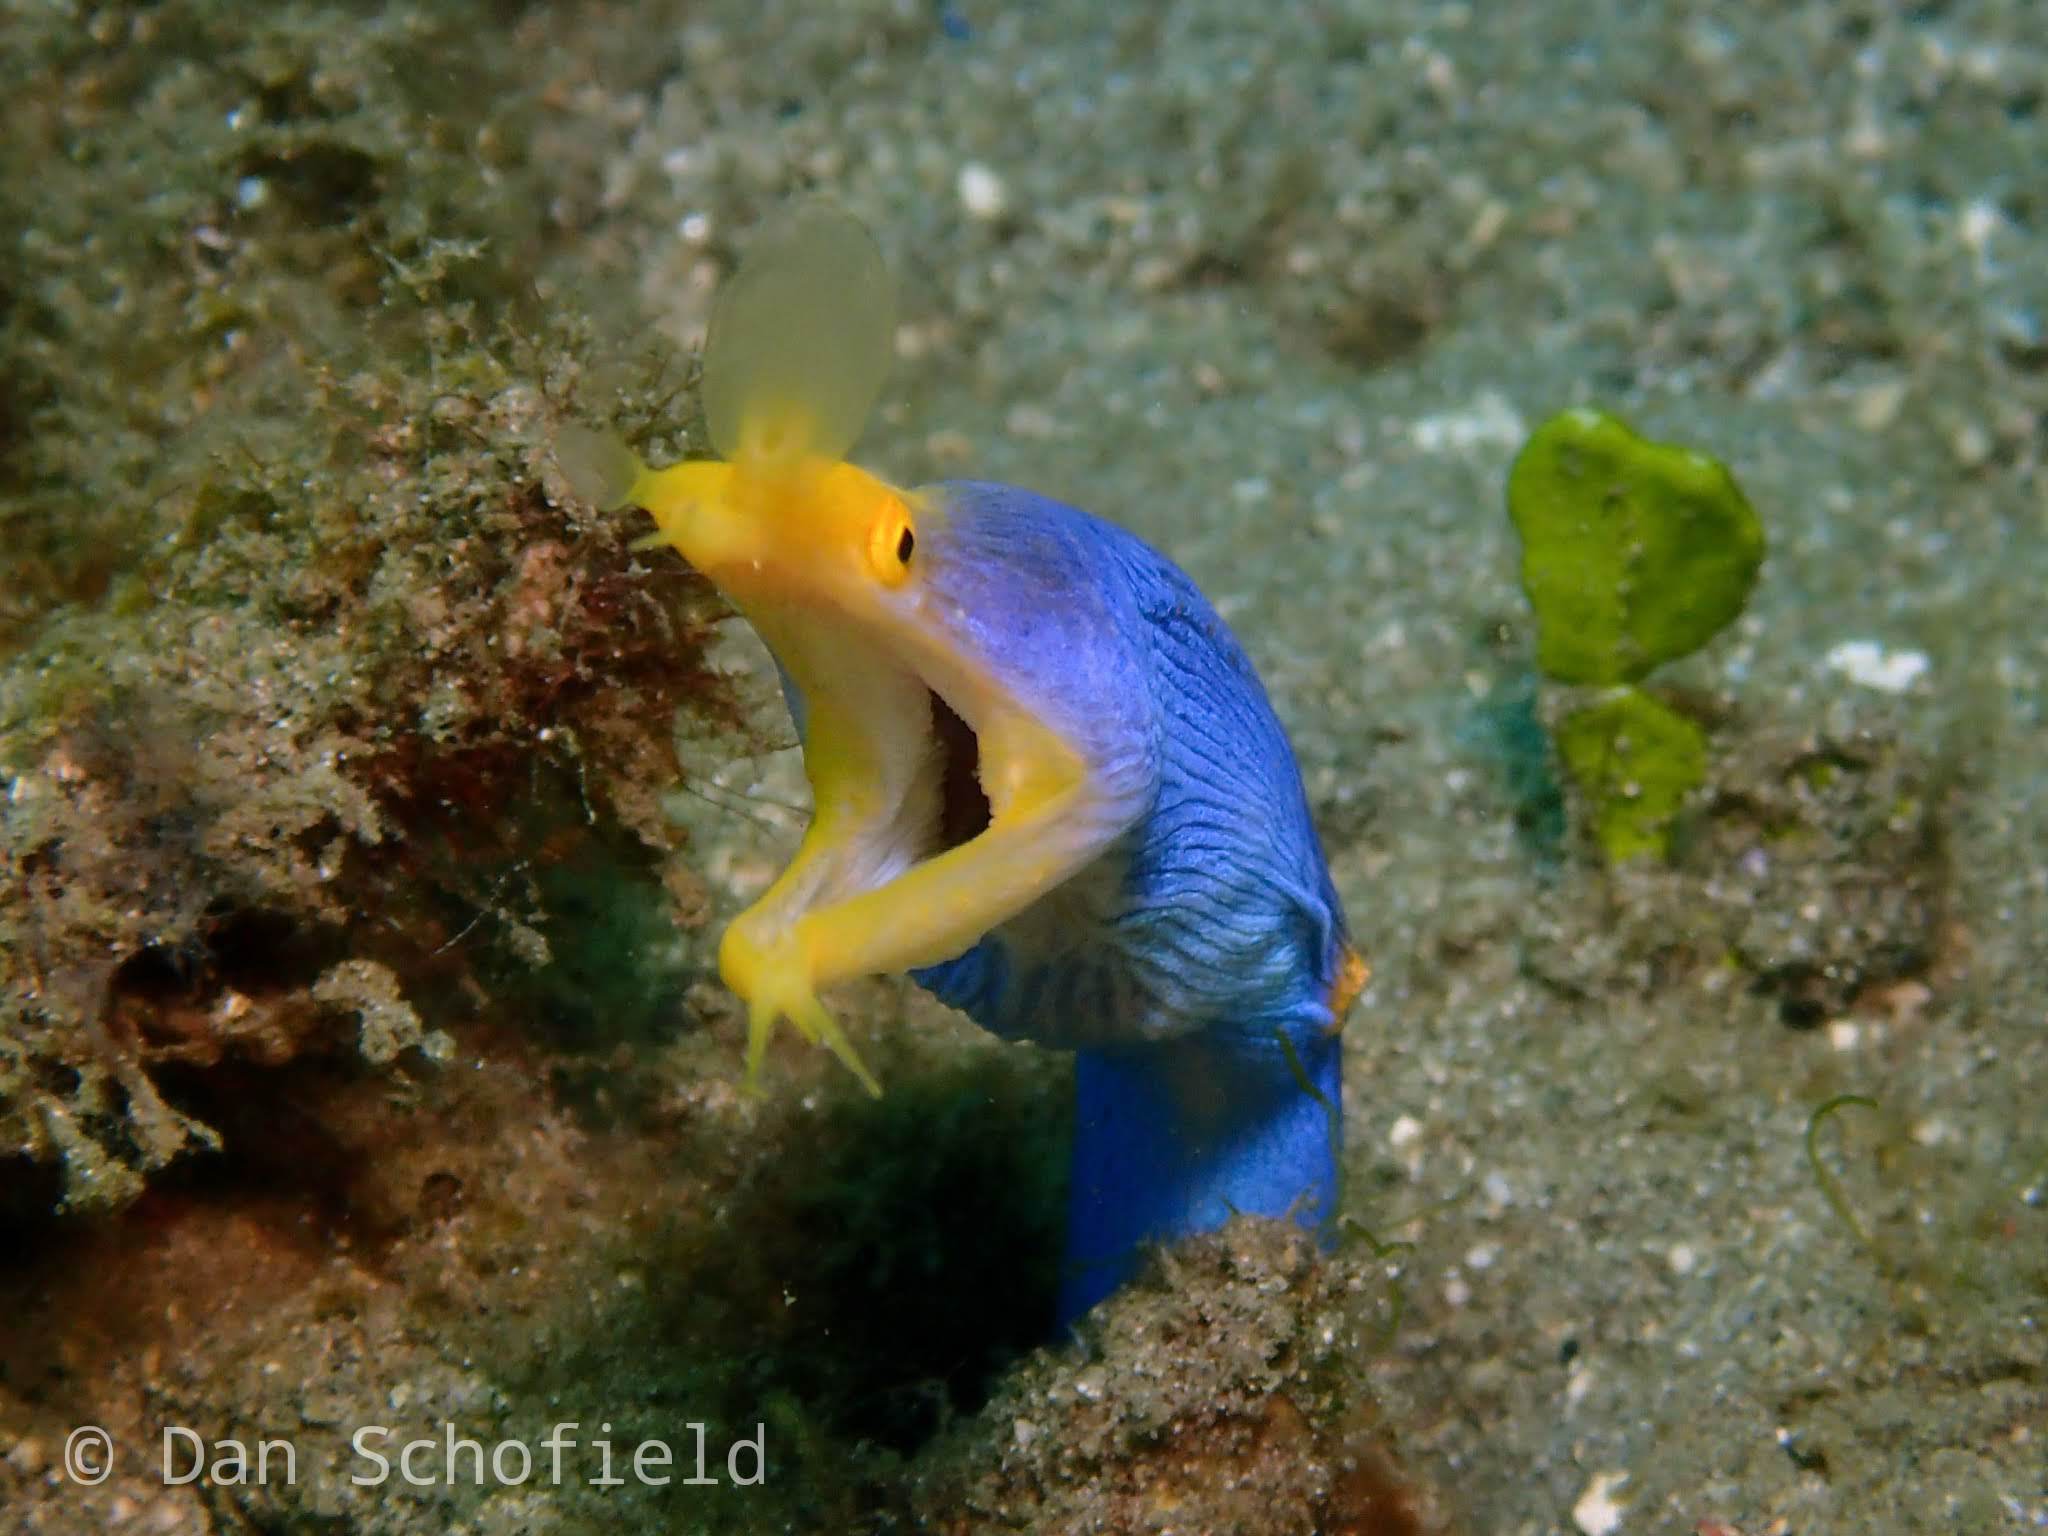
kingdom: Animalia
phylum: Chordata
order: Anguilliformes
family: Muraenidae
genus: Rhinomuraena
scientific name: Rhinomuraena quaesita
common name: Ribbon eel
